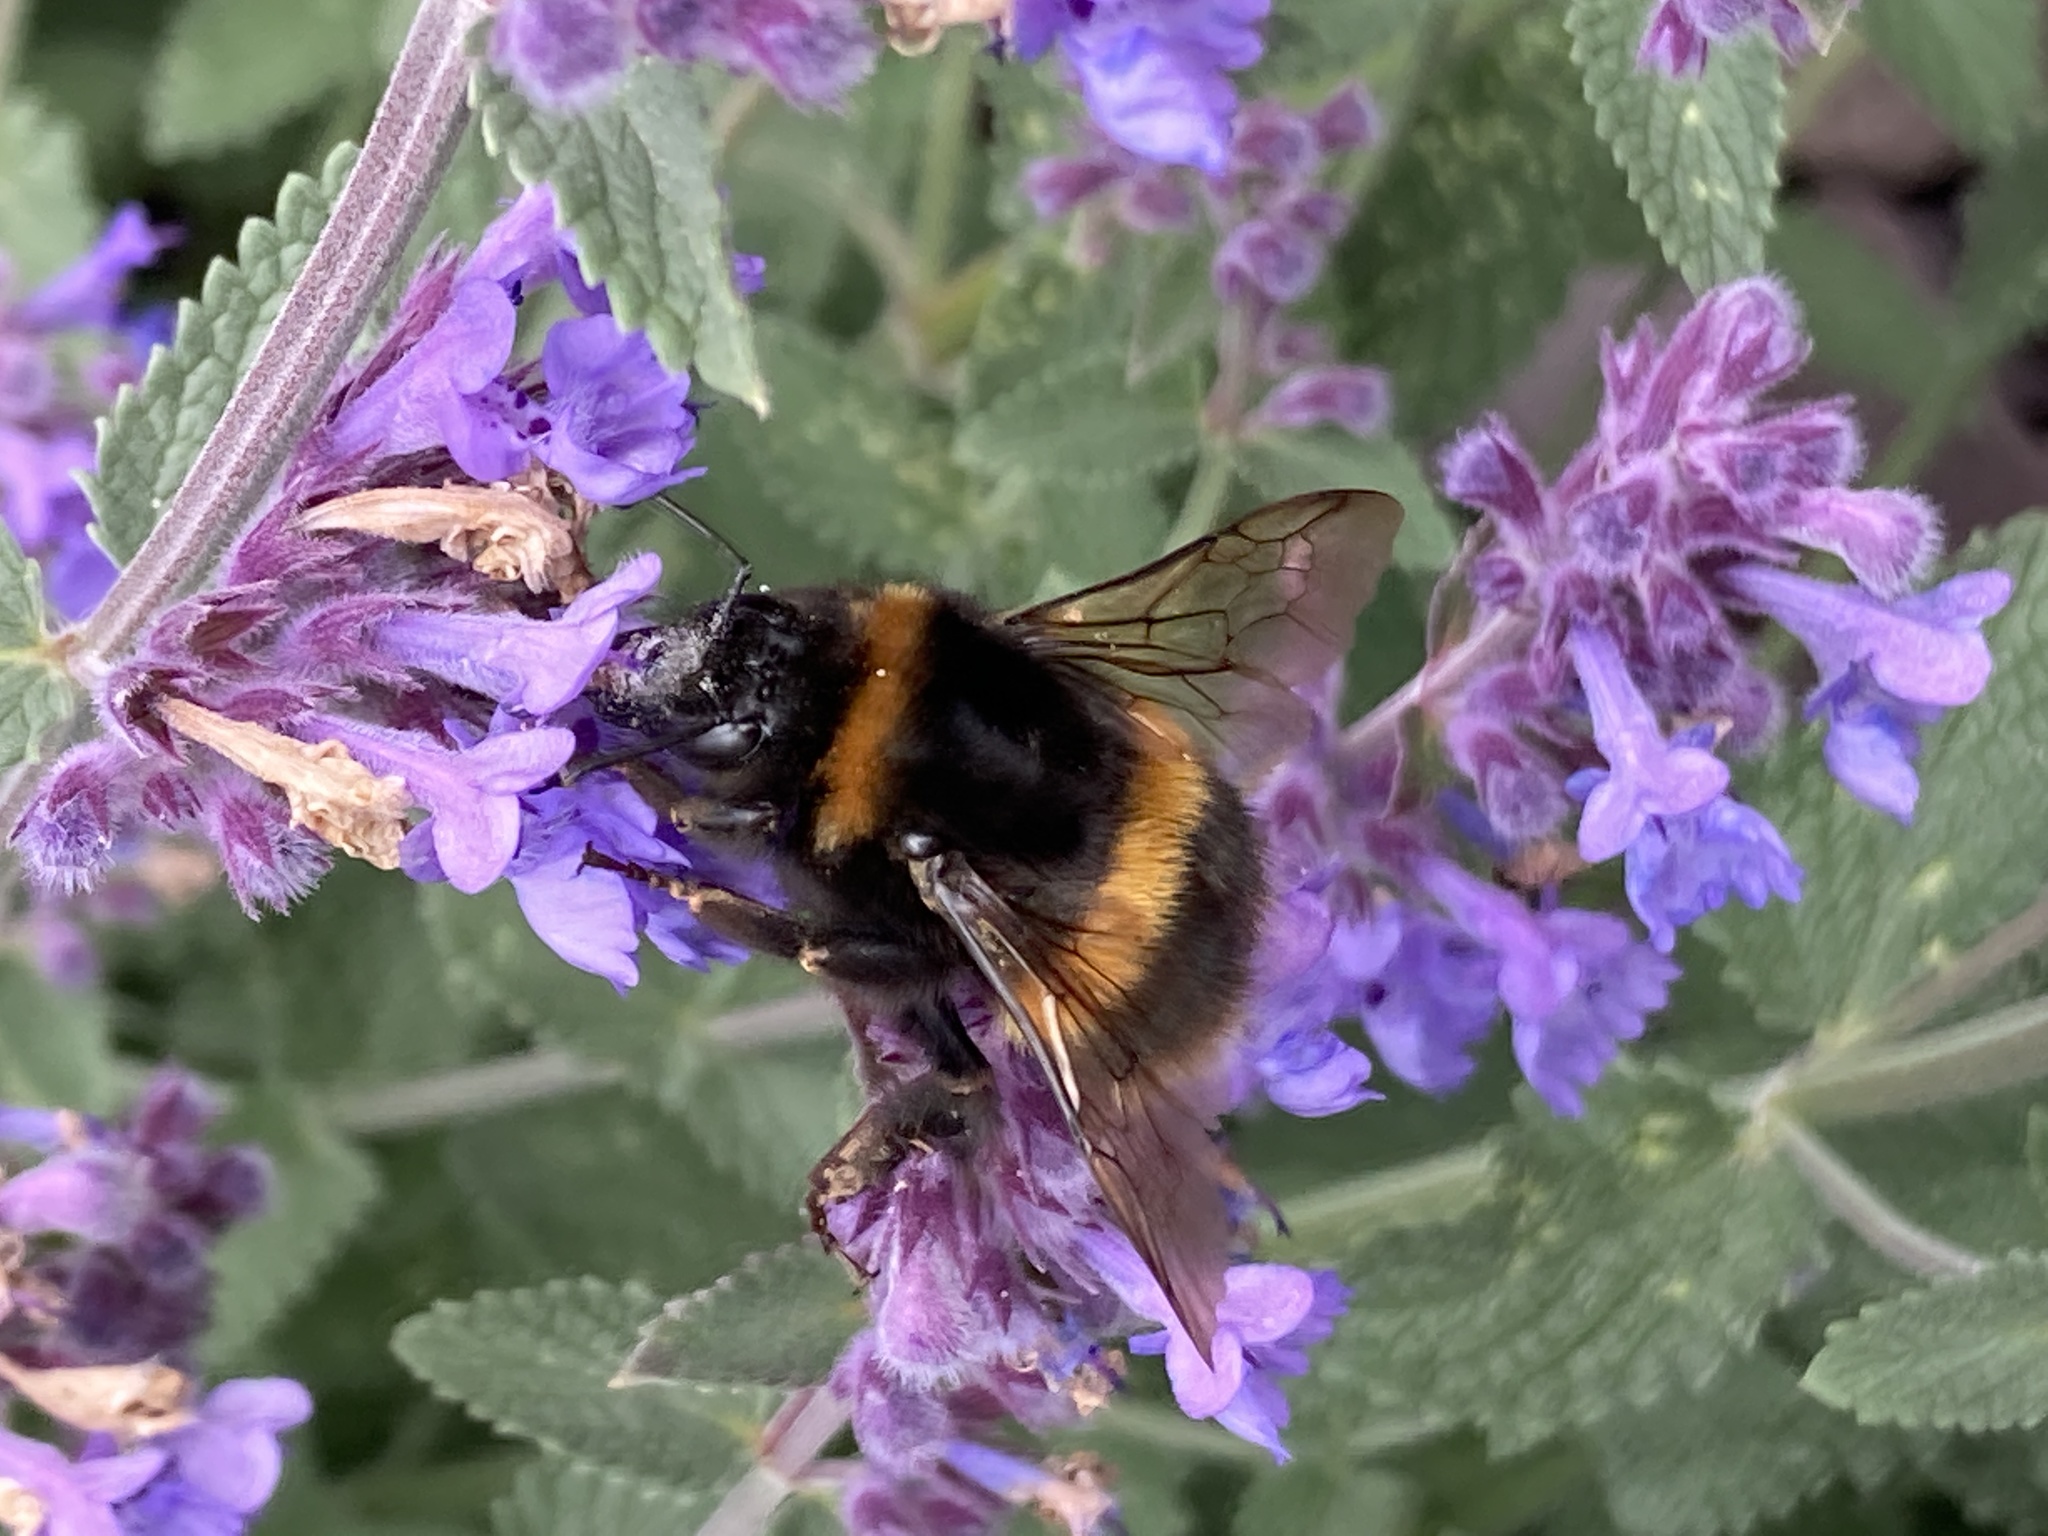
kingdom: Animalia
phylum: Arthropoda
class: Insecta
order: Hymenoptera
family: Apidae
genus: Bombus
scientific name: Bombus terrestris
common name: Buff-tailed bumblebee
